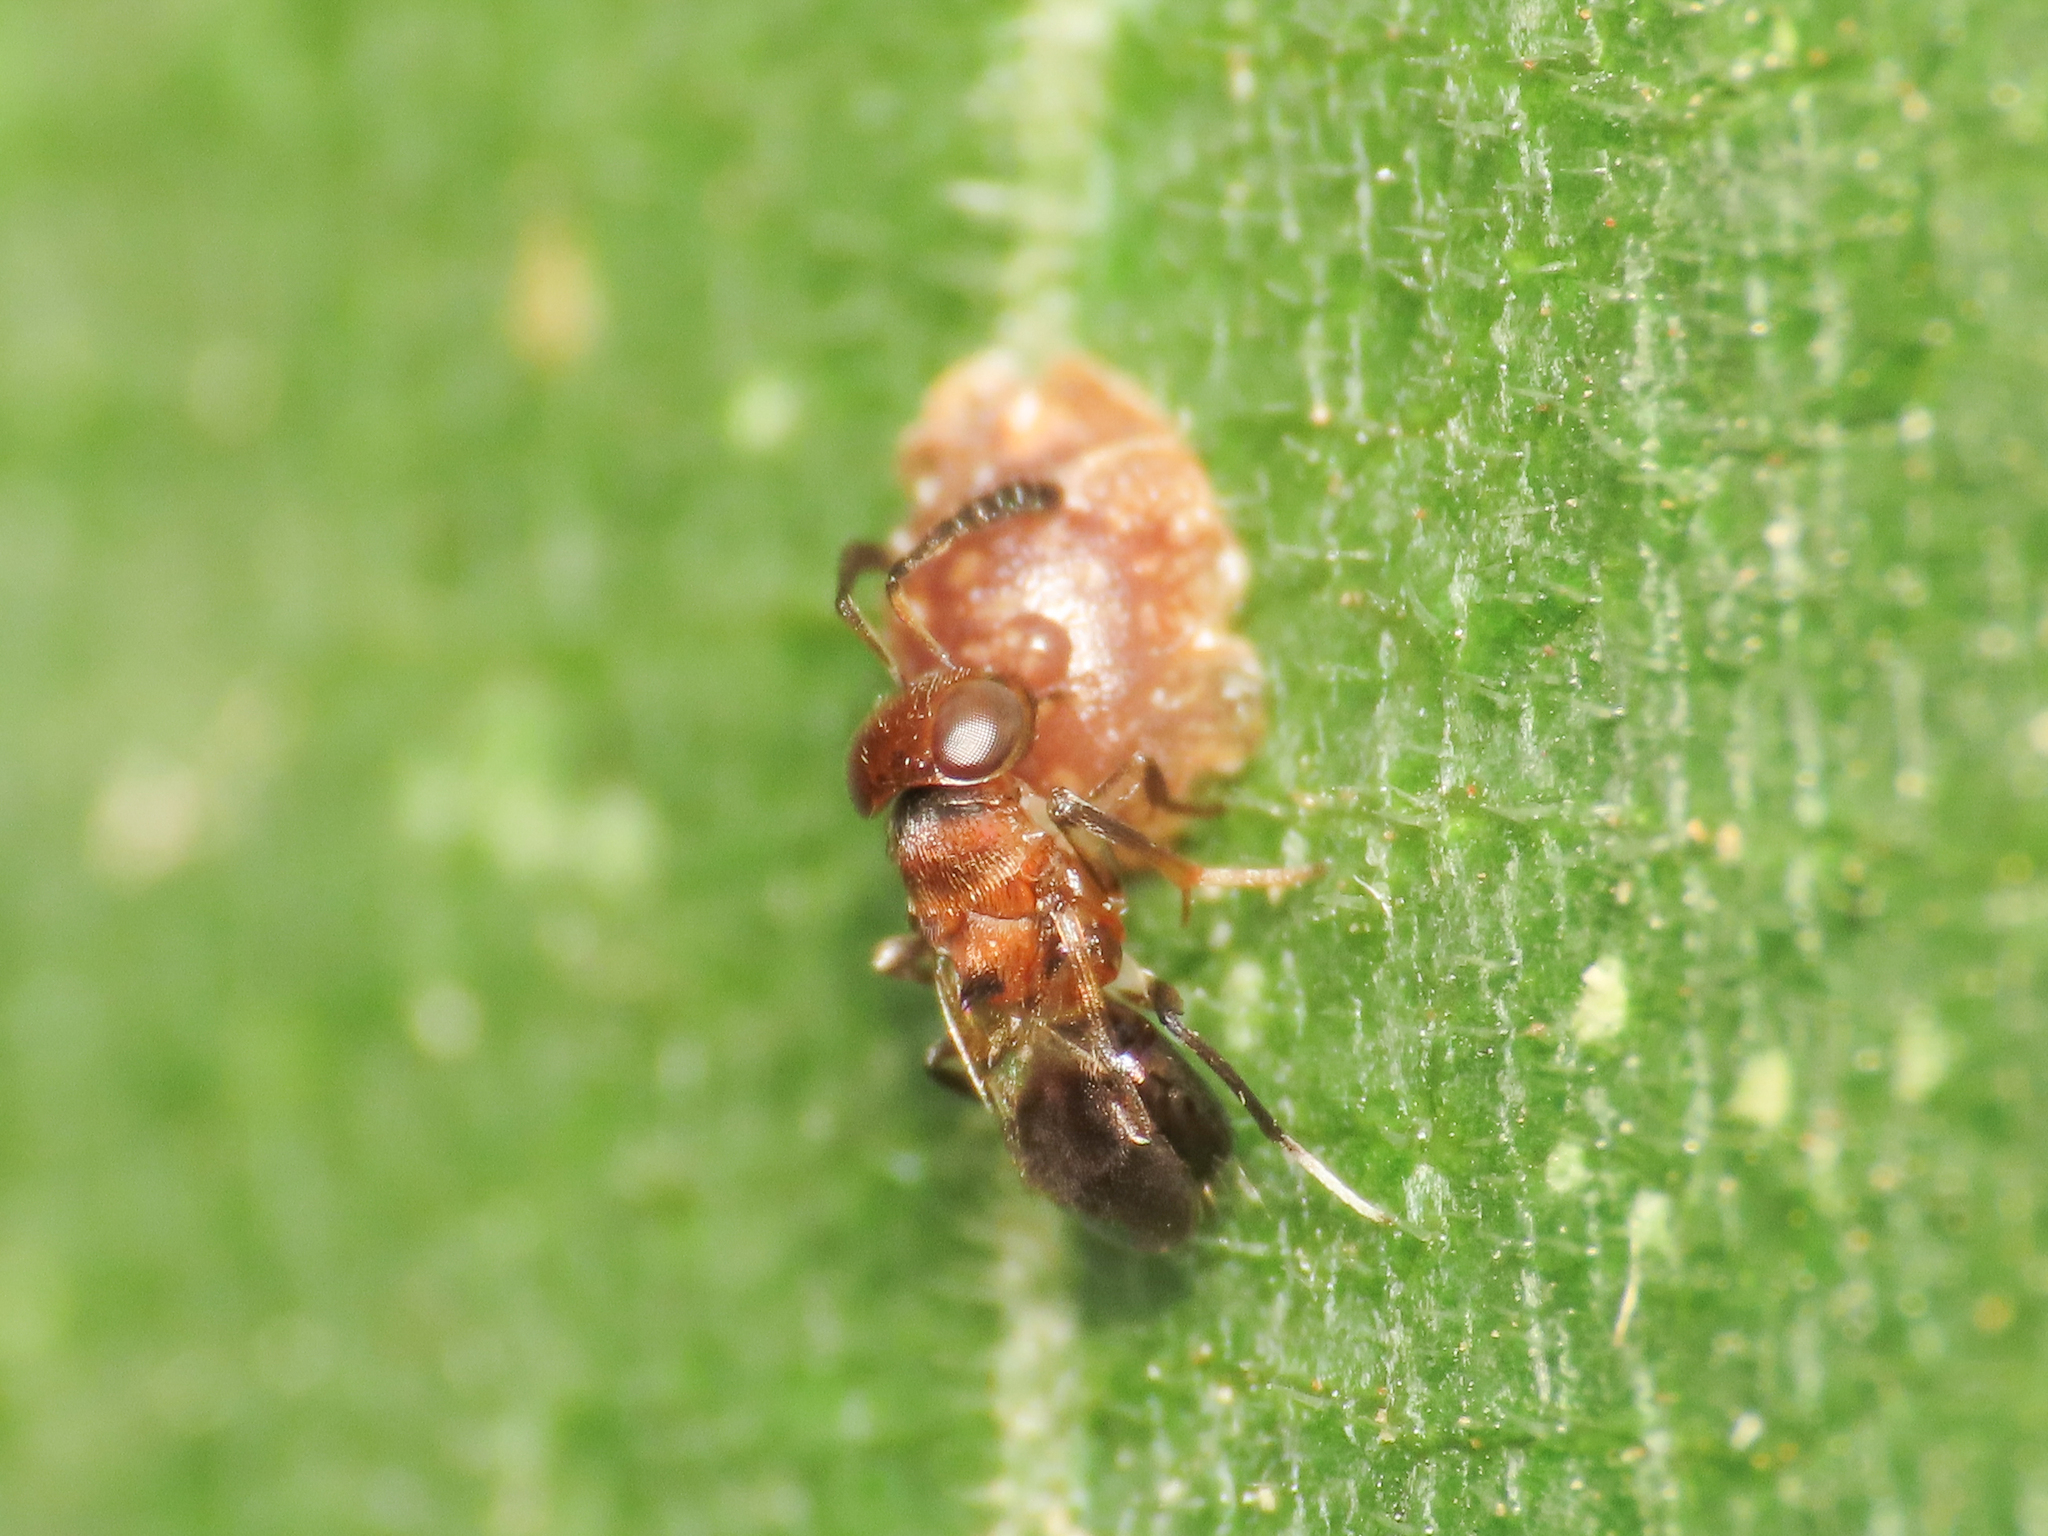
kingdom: Animalia
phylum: Arthropoda
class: Insecta
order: Hymenoptera
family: Encyrtidae
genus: Encyrtus
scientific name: Encyrtus aurantii
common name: Parasitoid wasp
